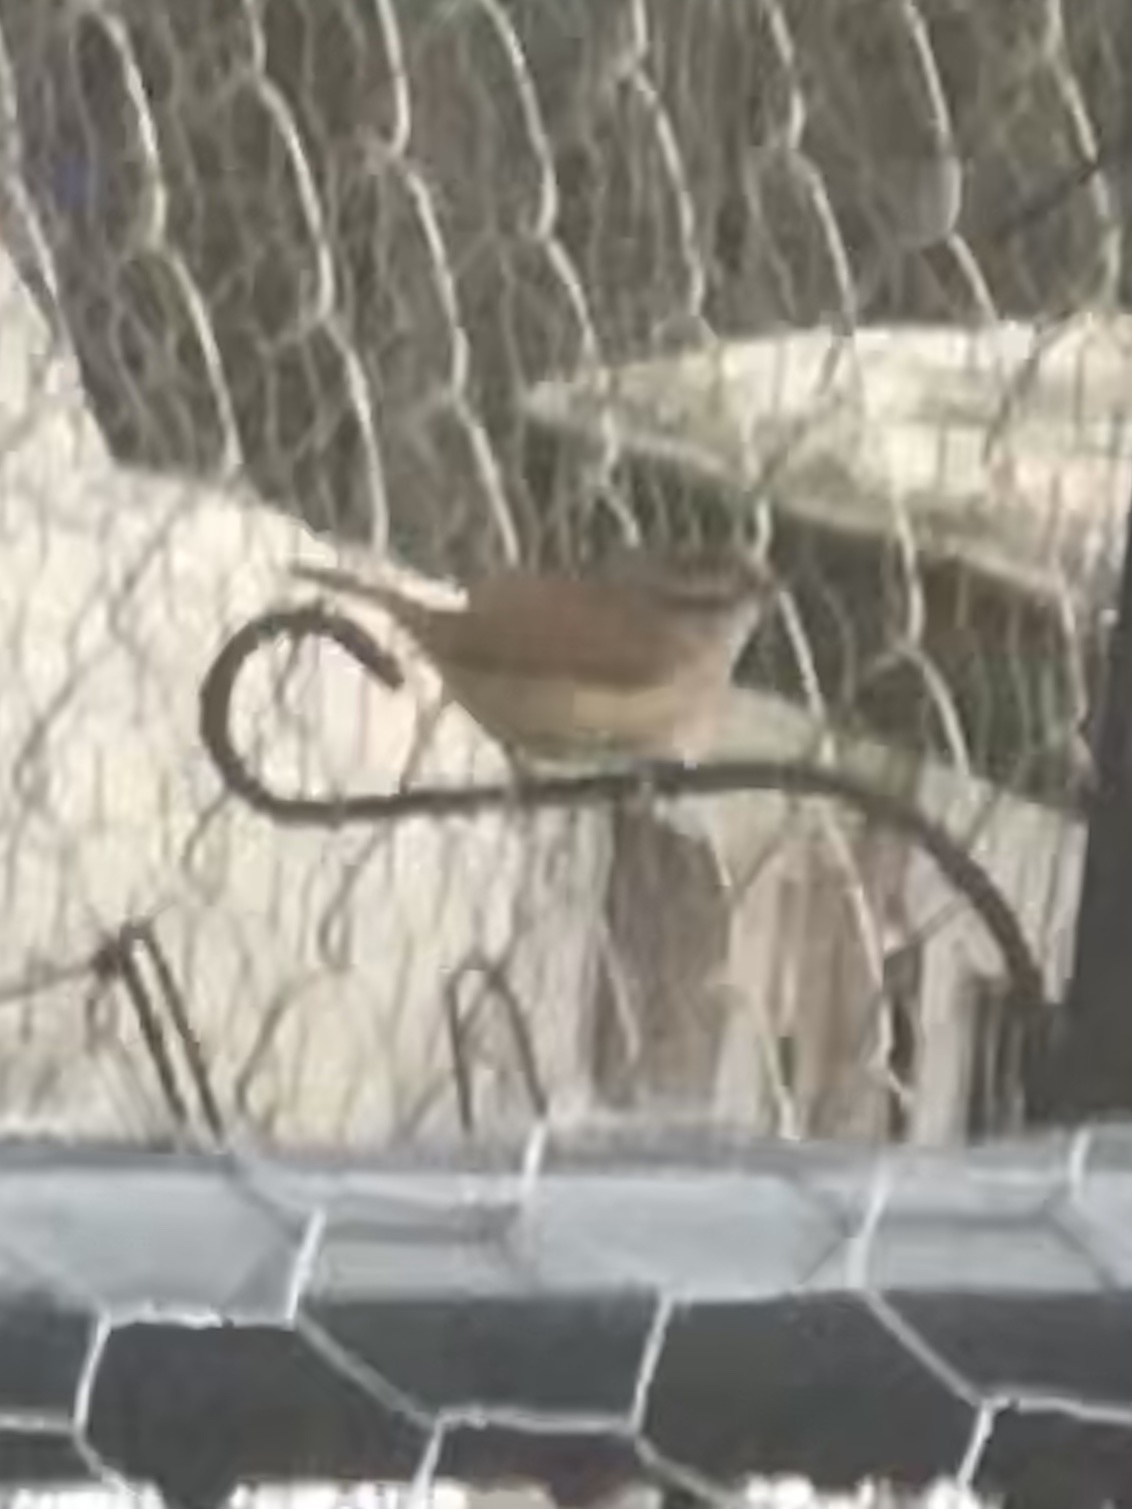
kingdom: Animalia
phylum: Chordata
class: Aves
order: Passeriformes
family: Troglodytidae
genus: Thryothorus
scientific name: Thryothorus ludovicianus
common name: Carolina wren
